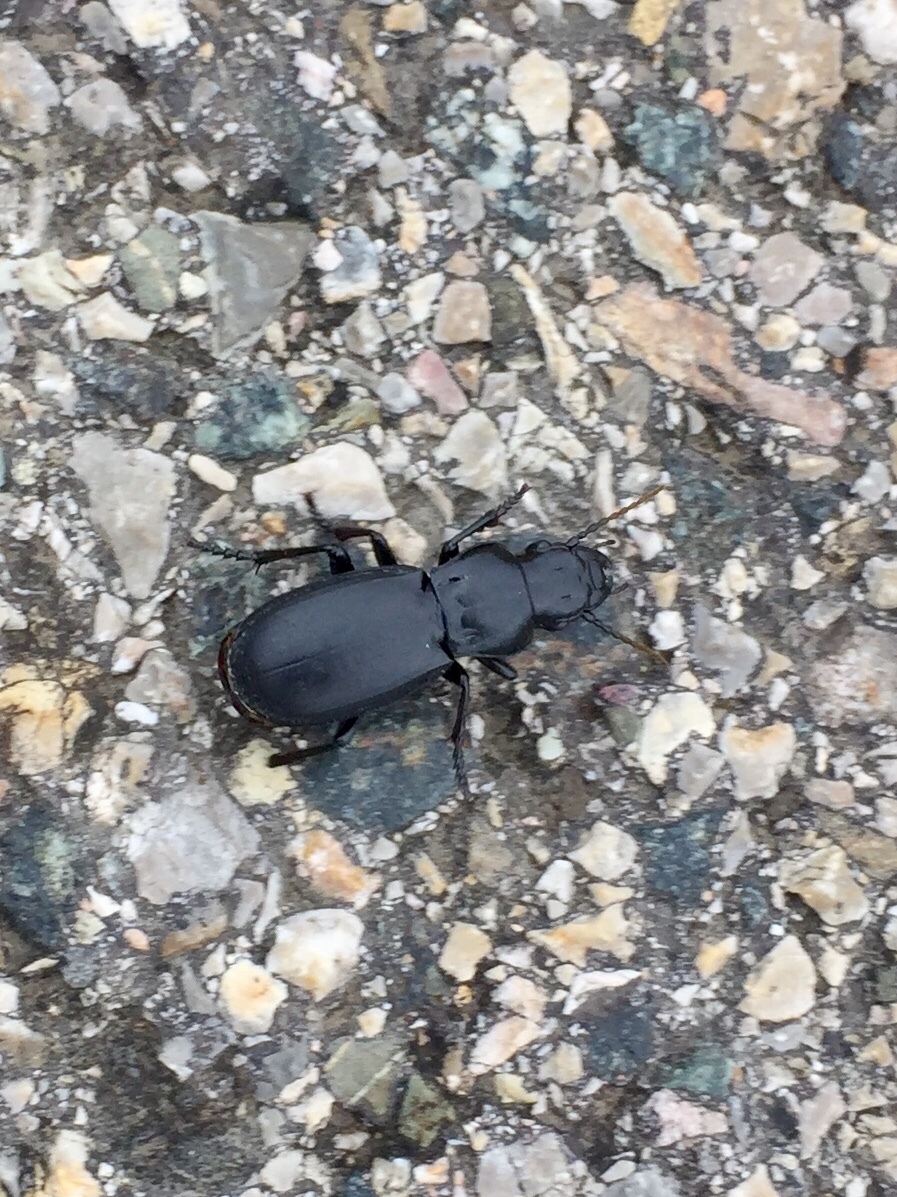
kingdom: Animalia
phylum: Arthropoda
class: Insecta
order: Coleoptera
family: Carabidae
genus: Percus
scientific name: Percus
